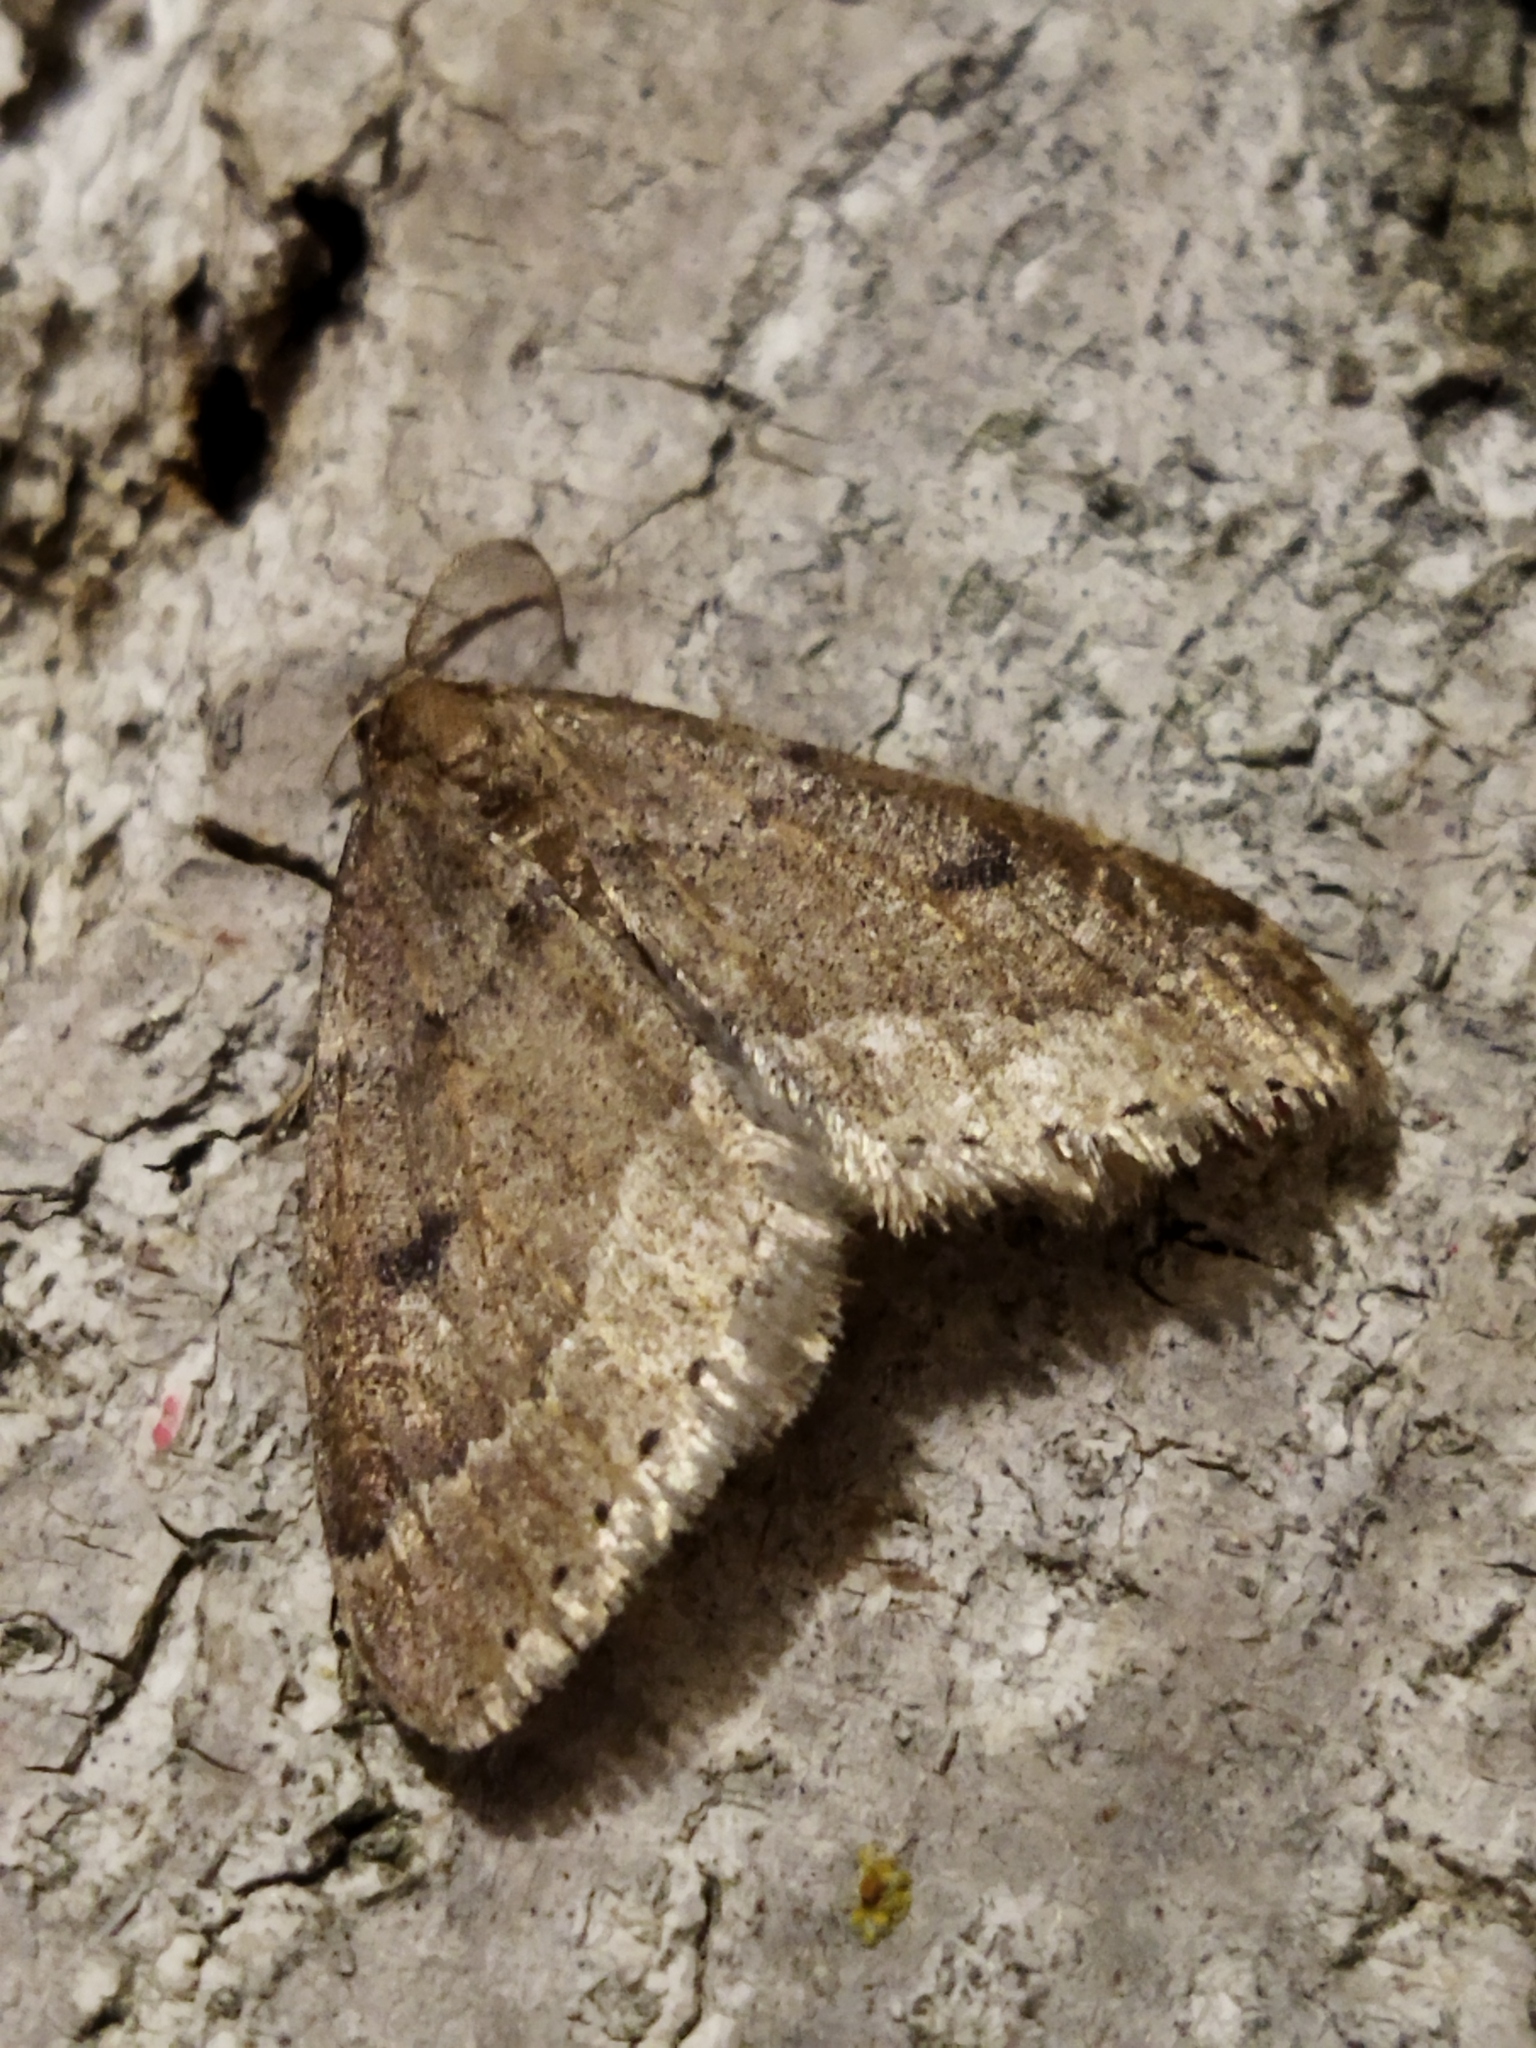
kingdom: Animalia
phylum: Arthropoda
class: Insecta
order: Lepidoptera
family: Geometridae
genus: Theria
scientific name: Theria rupicapraria
